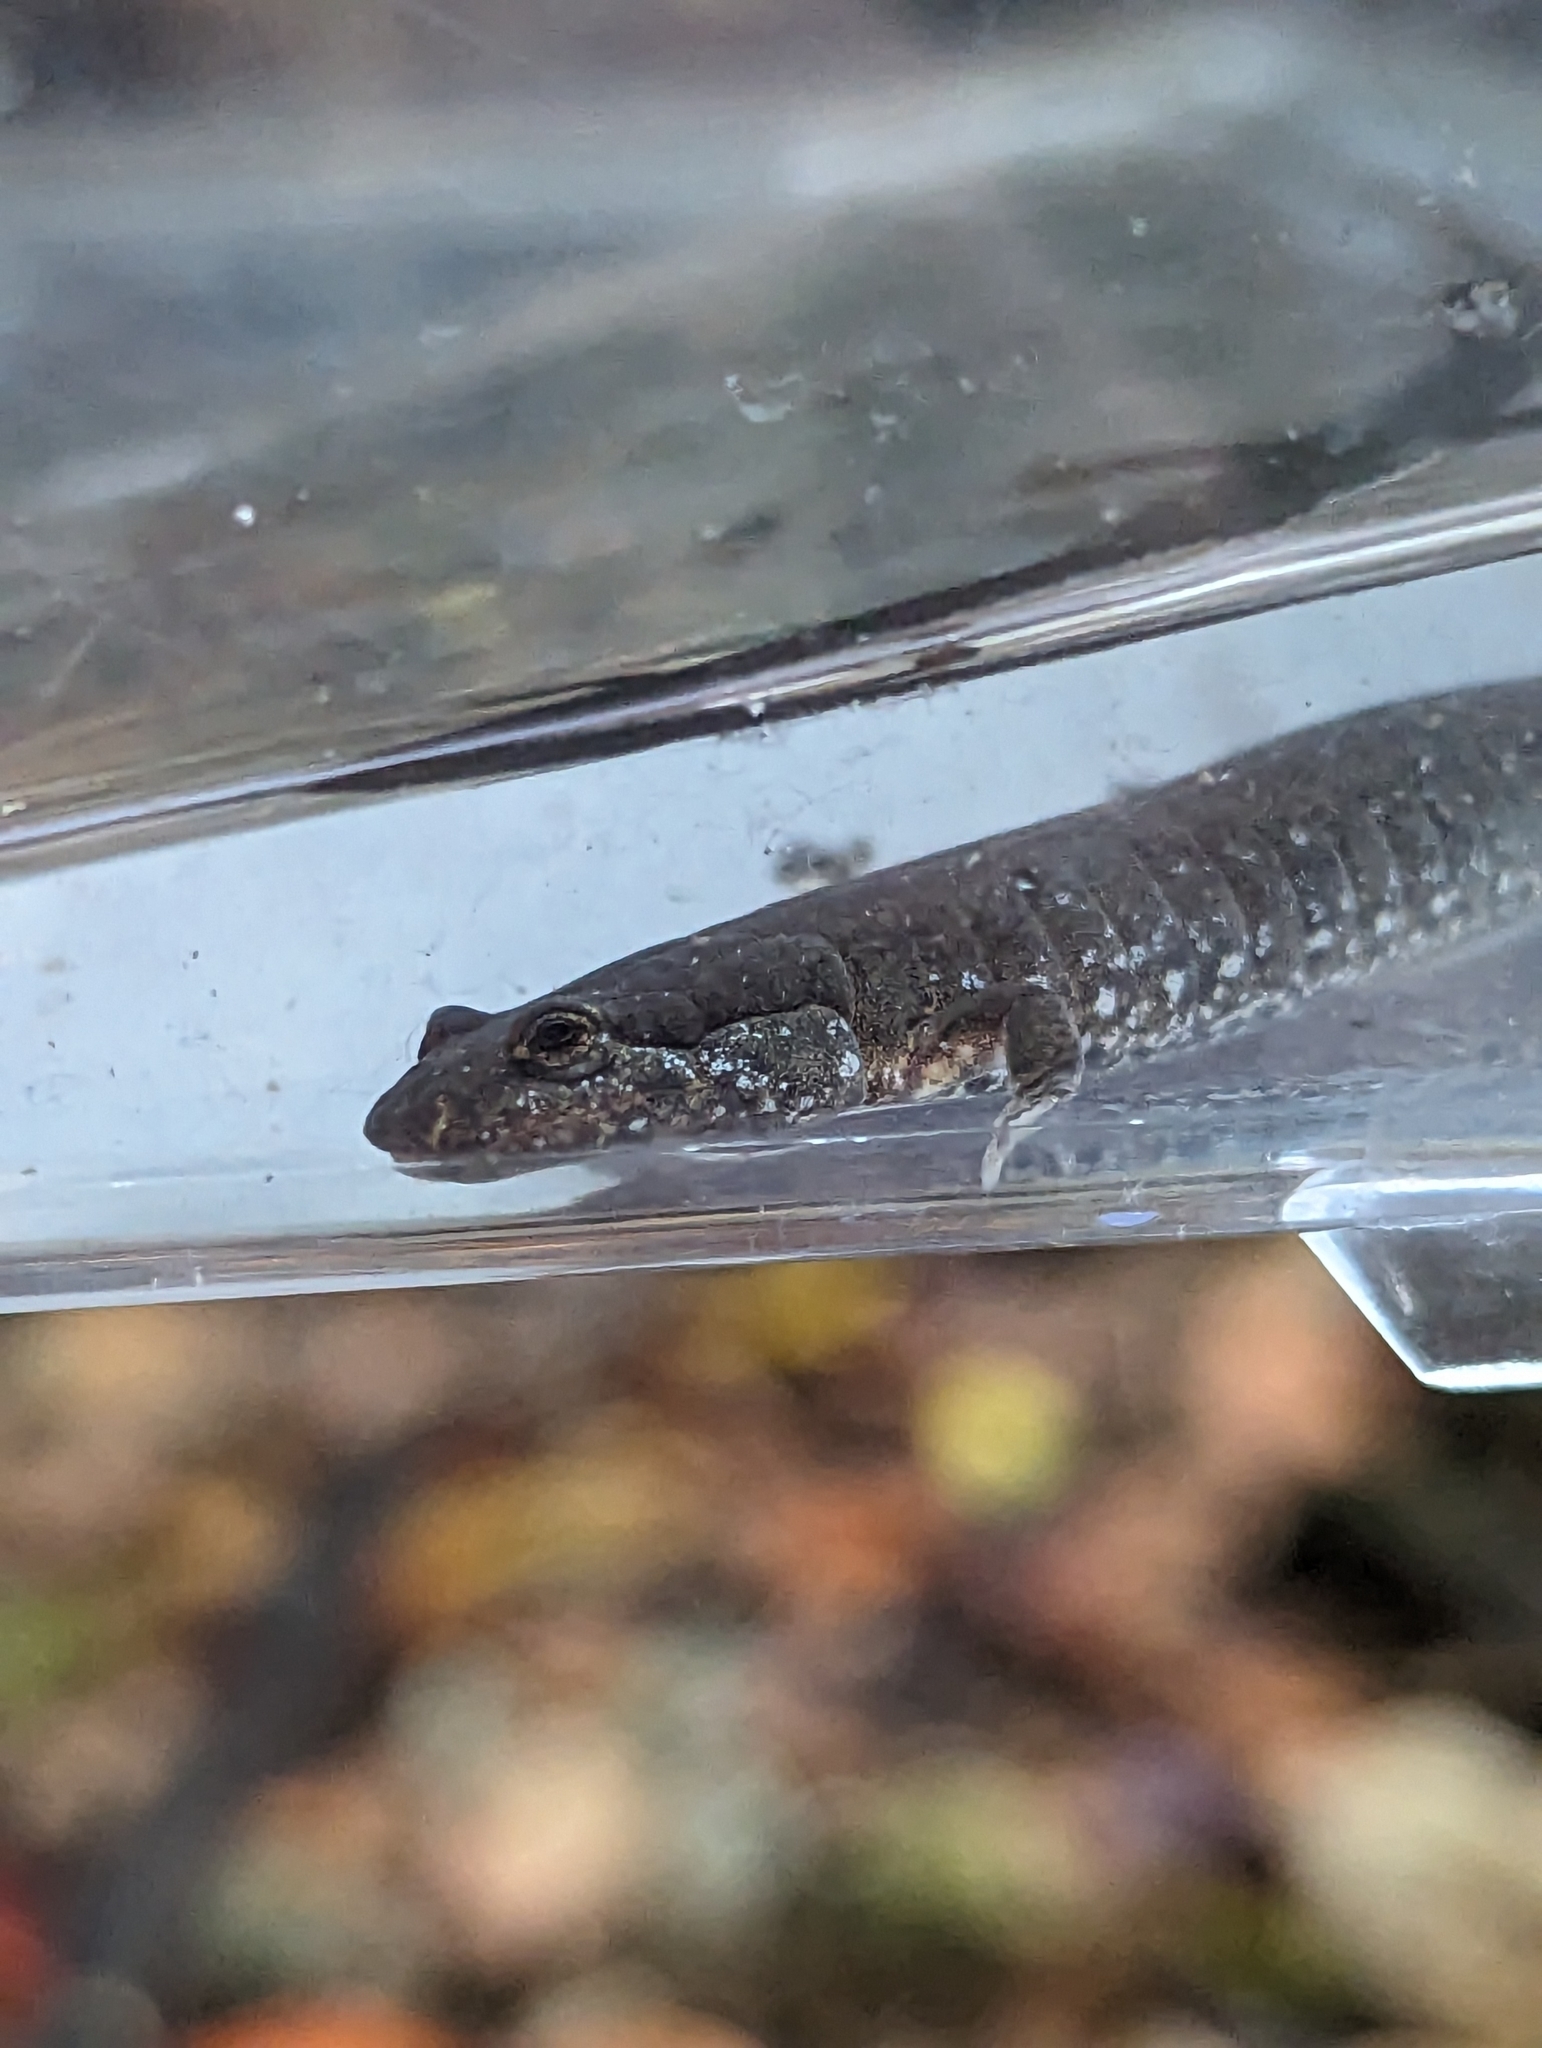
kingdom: Animalia
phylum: Chordata
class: Amphibia
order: Caudata
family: Plethodontidae
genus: Desmognathus
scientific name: Desmognathus fuscus
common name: Northern dusky salamander
